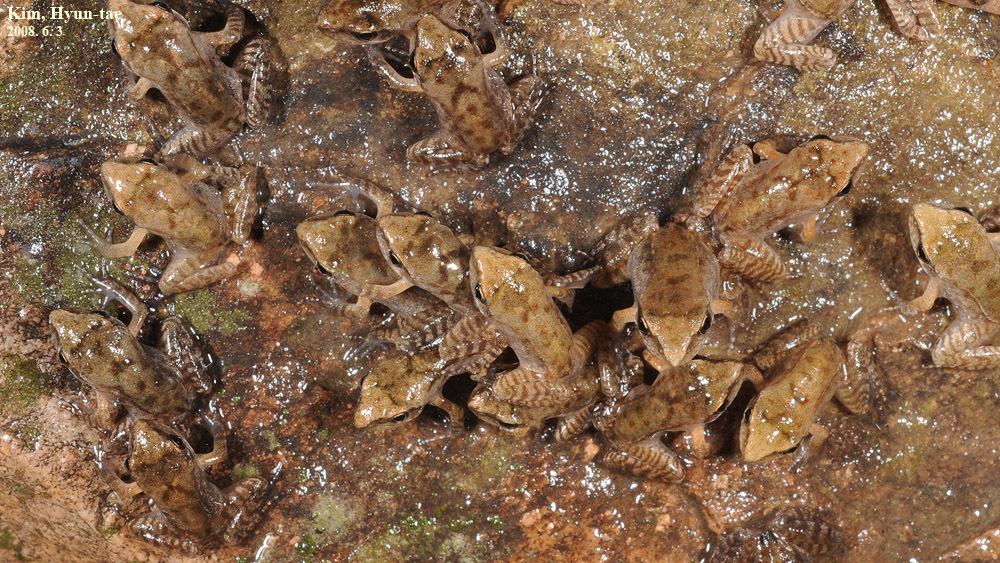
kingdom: Animalia
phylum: Chordata
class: Amphibia
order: Anura
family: Ranidae
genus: Rana
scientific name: Rana uenoi
